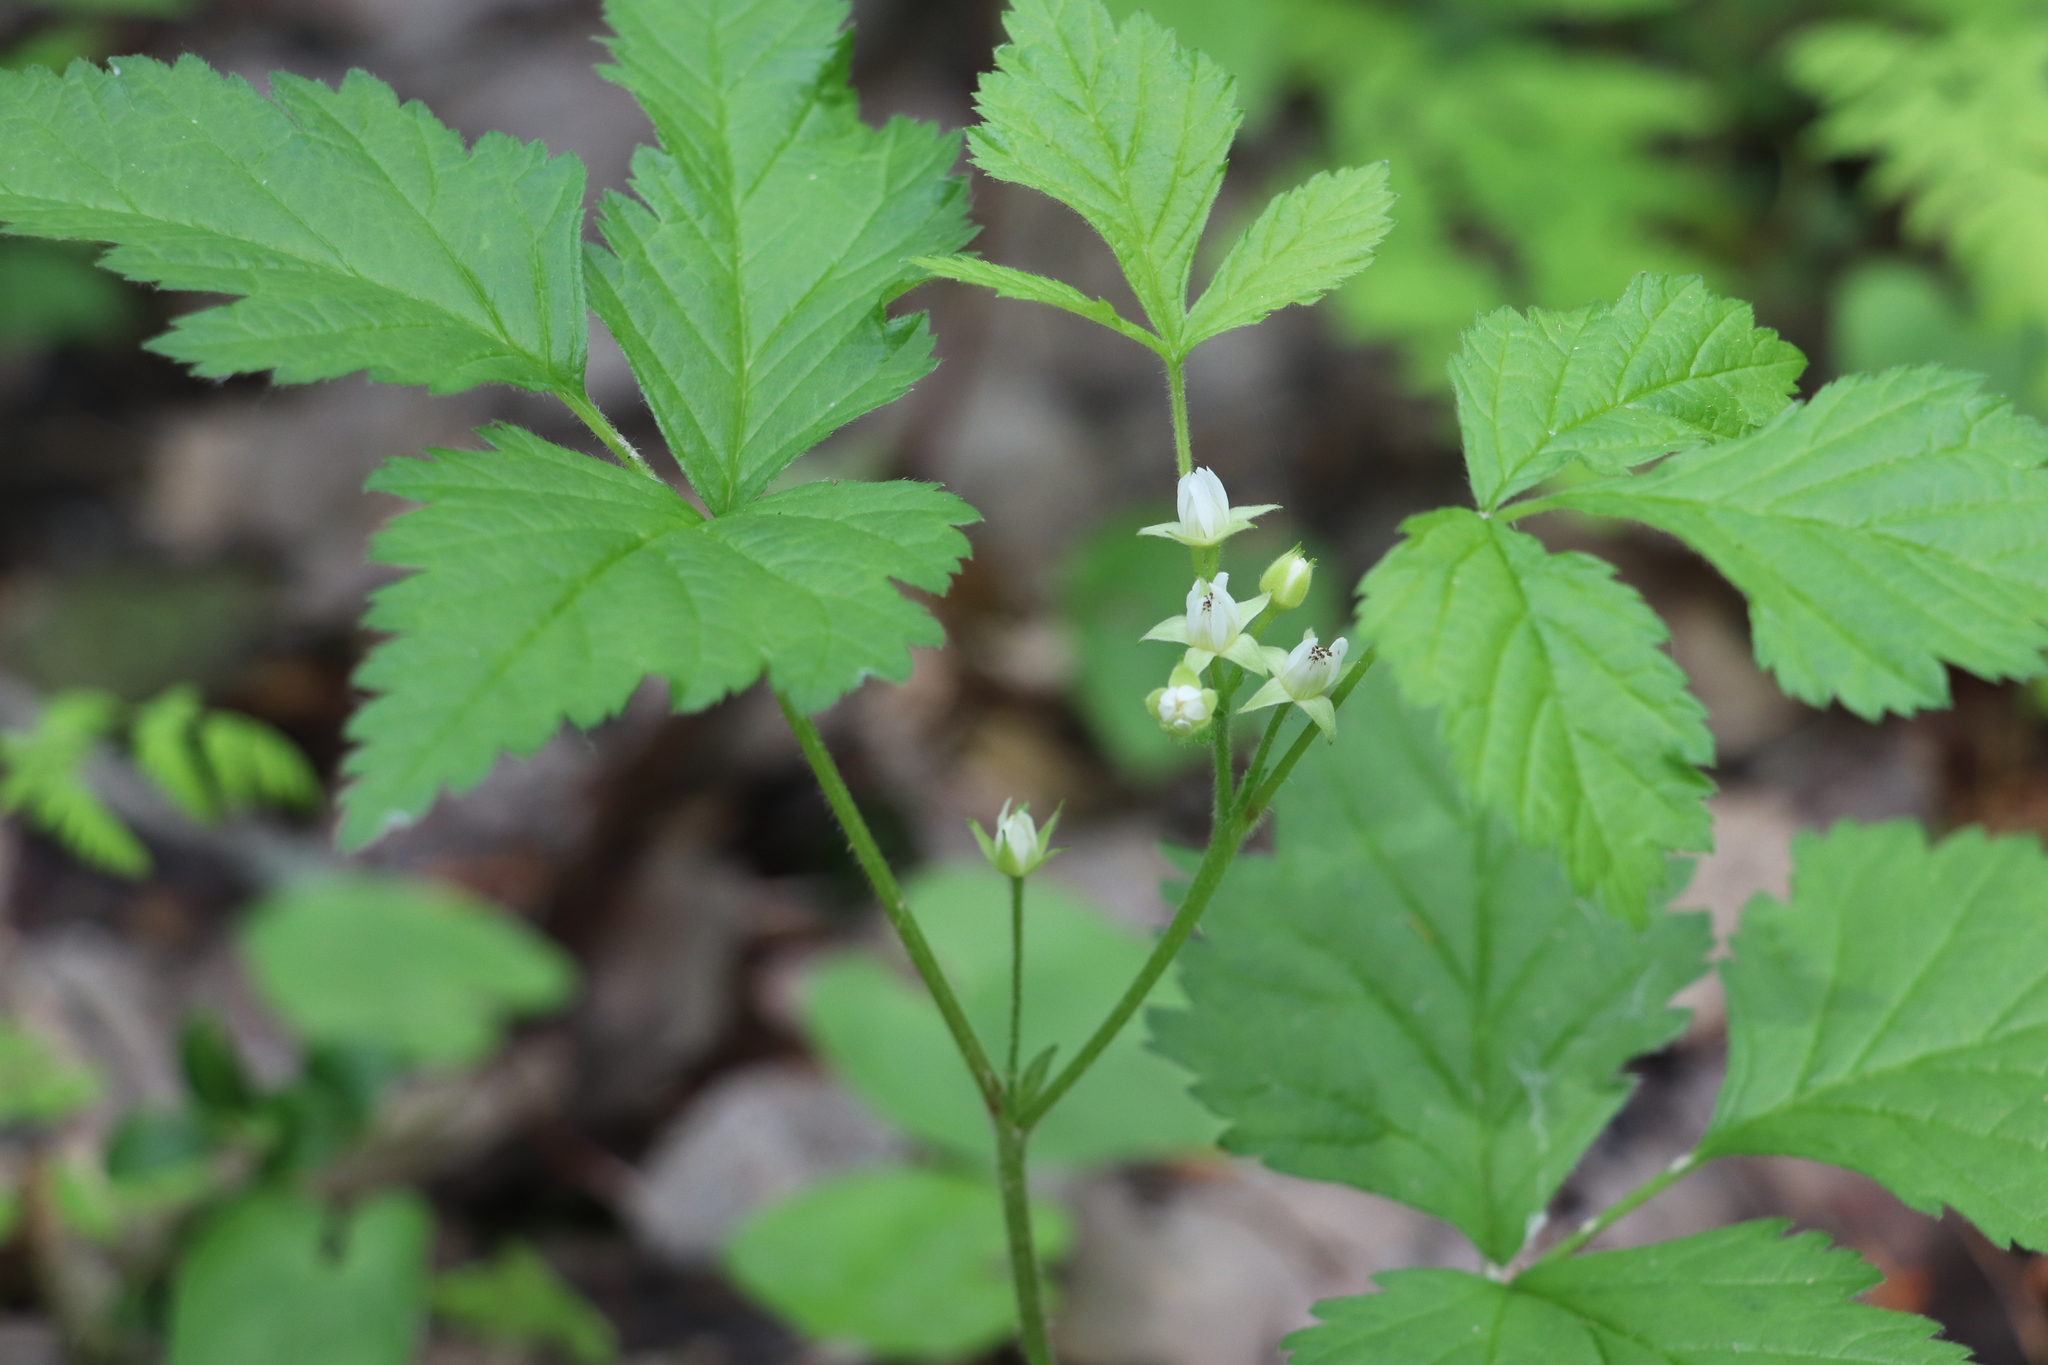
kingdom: Plantae
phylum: Tracheophyta
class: Magnoliopsida
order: Rosales
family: Rosaceae
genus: Rubus
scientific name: Rubus saxatilis
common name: Stone bramble
